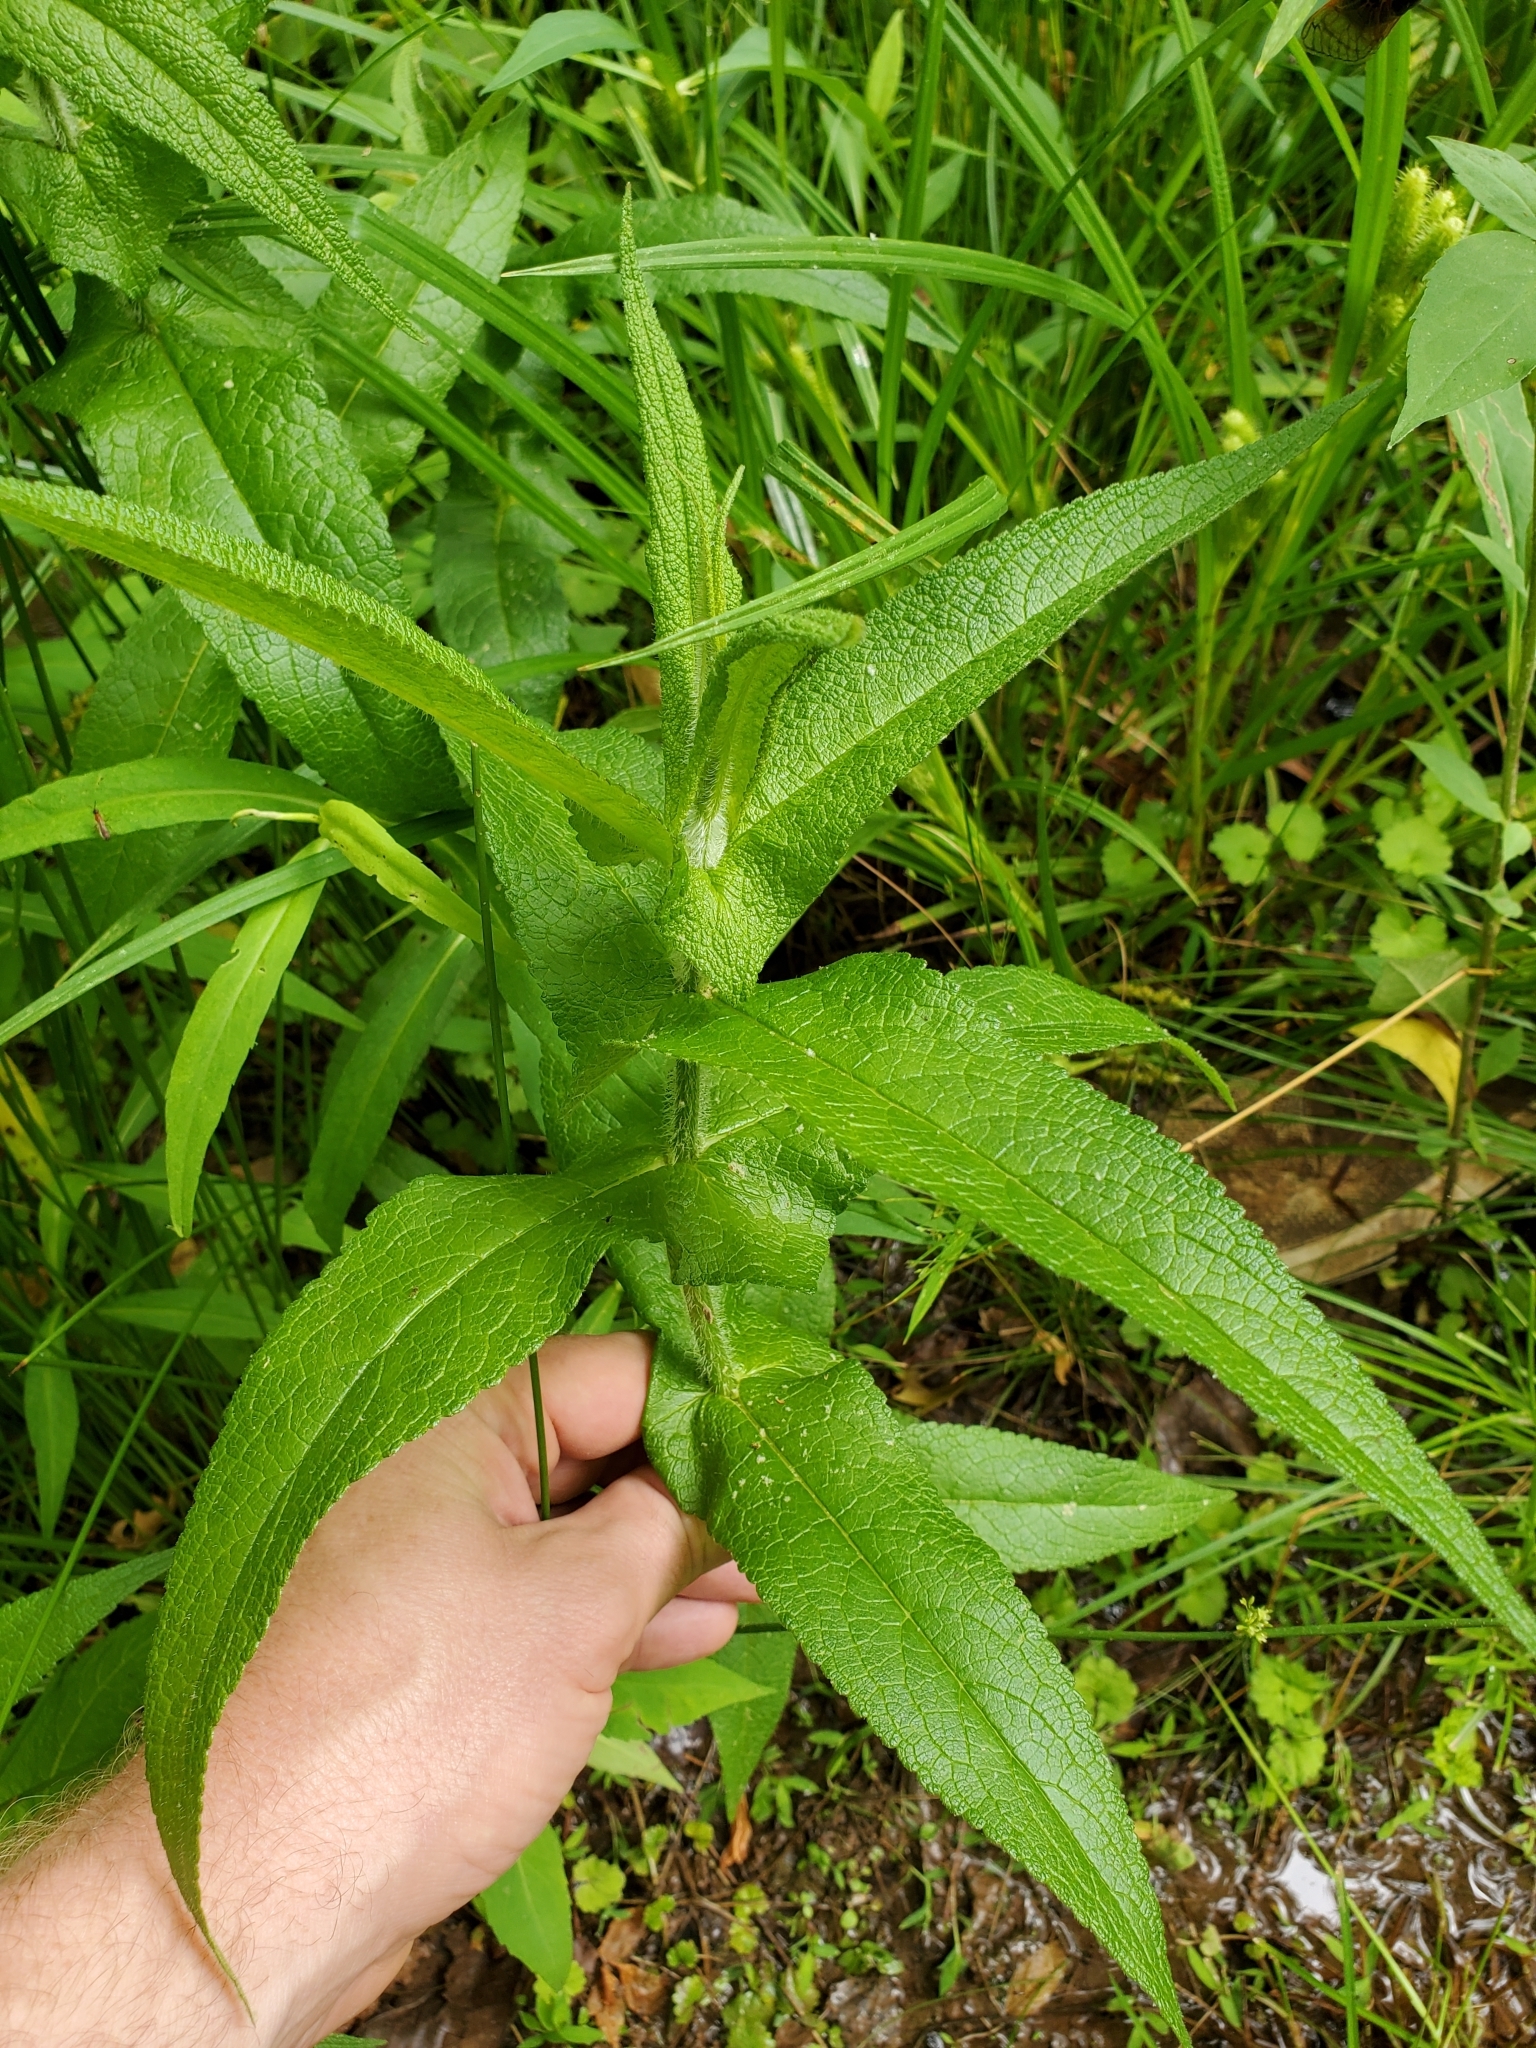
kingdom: Plantae
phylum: Tracheophyta
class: Magnoliopsida
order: Asterales
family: Asteraceae
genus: Eupatorium
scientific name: Eupatorium perfoliatum
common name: Boneset
